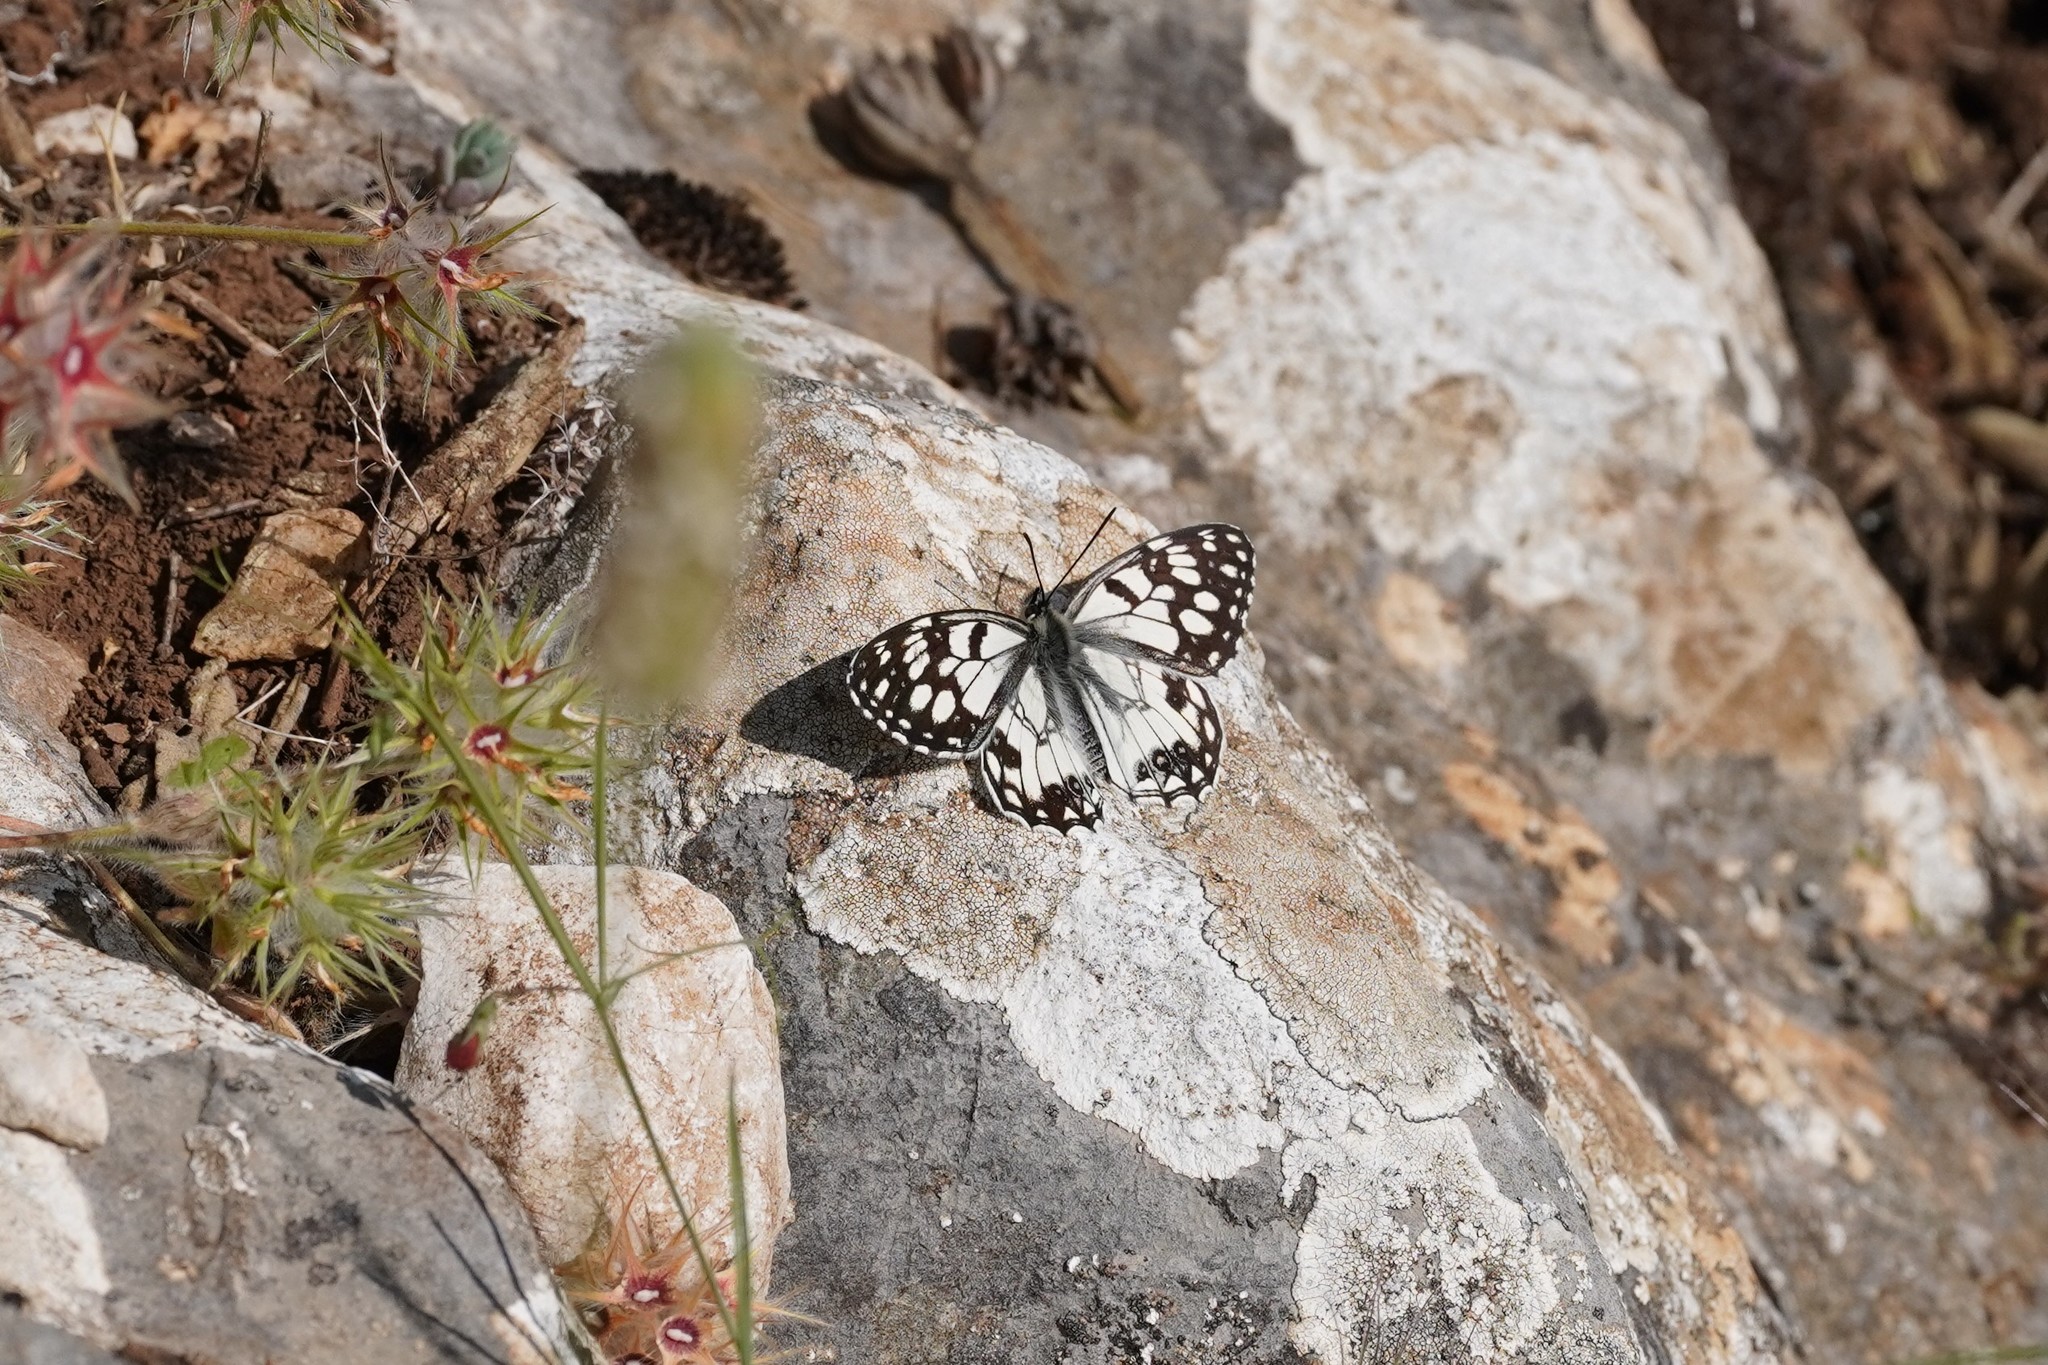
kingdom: Animalia
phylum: Arthropoda
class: Insecta
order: Lepidoptera
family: Nymphalidae
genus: Melanargia
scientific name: Melanargia ines
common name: Spanish marbled white
